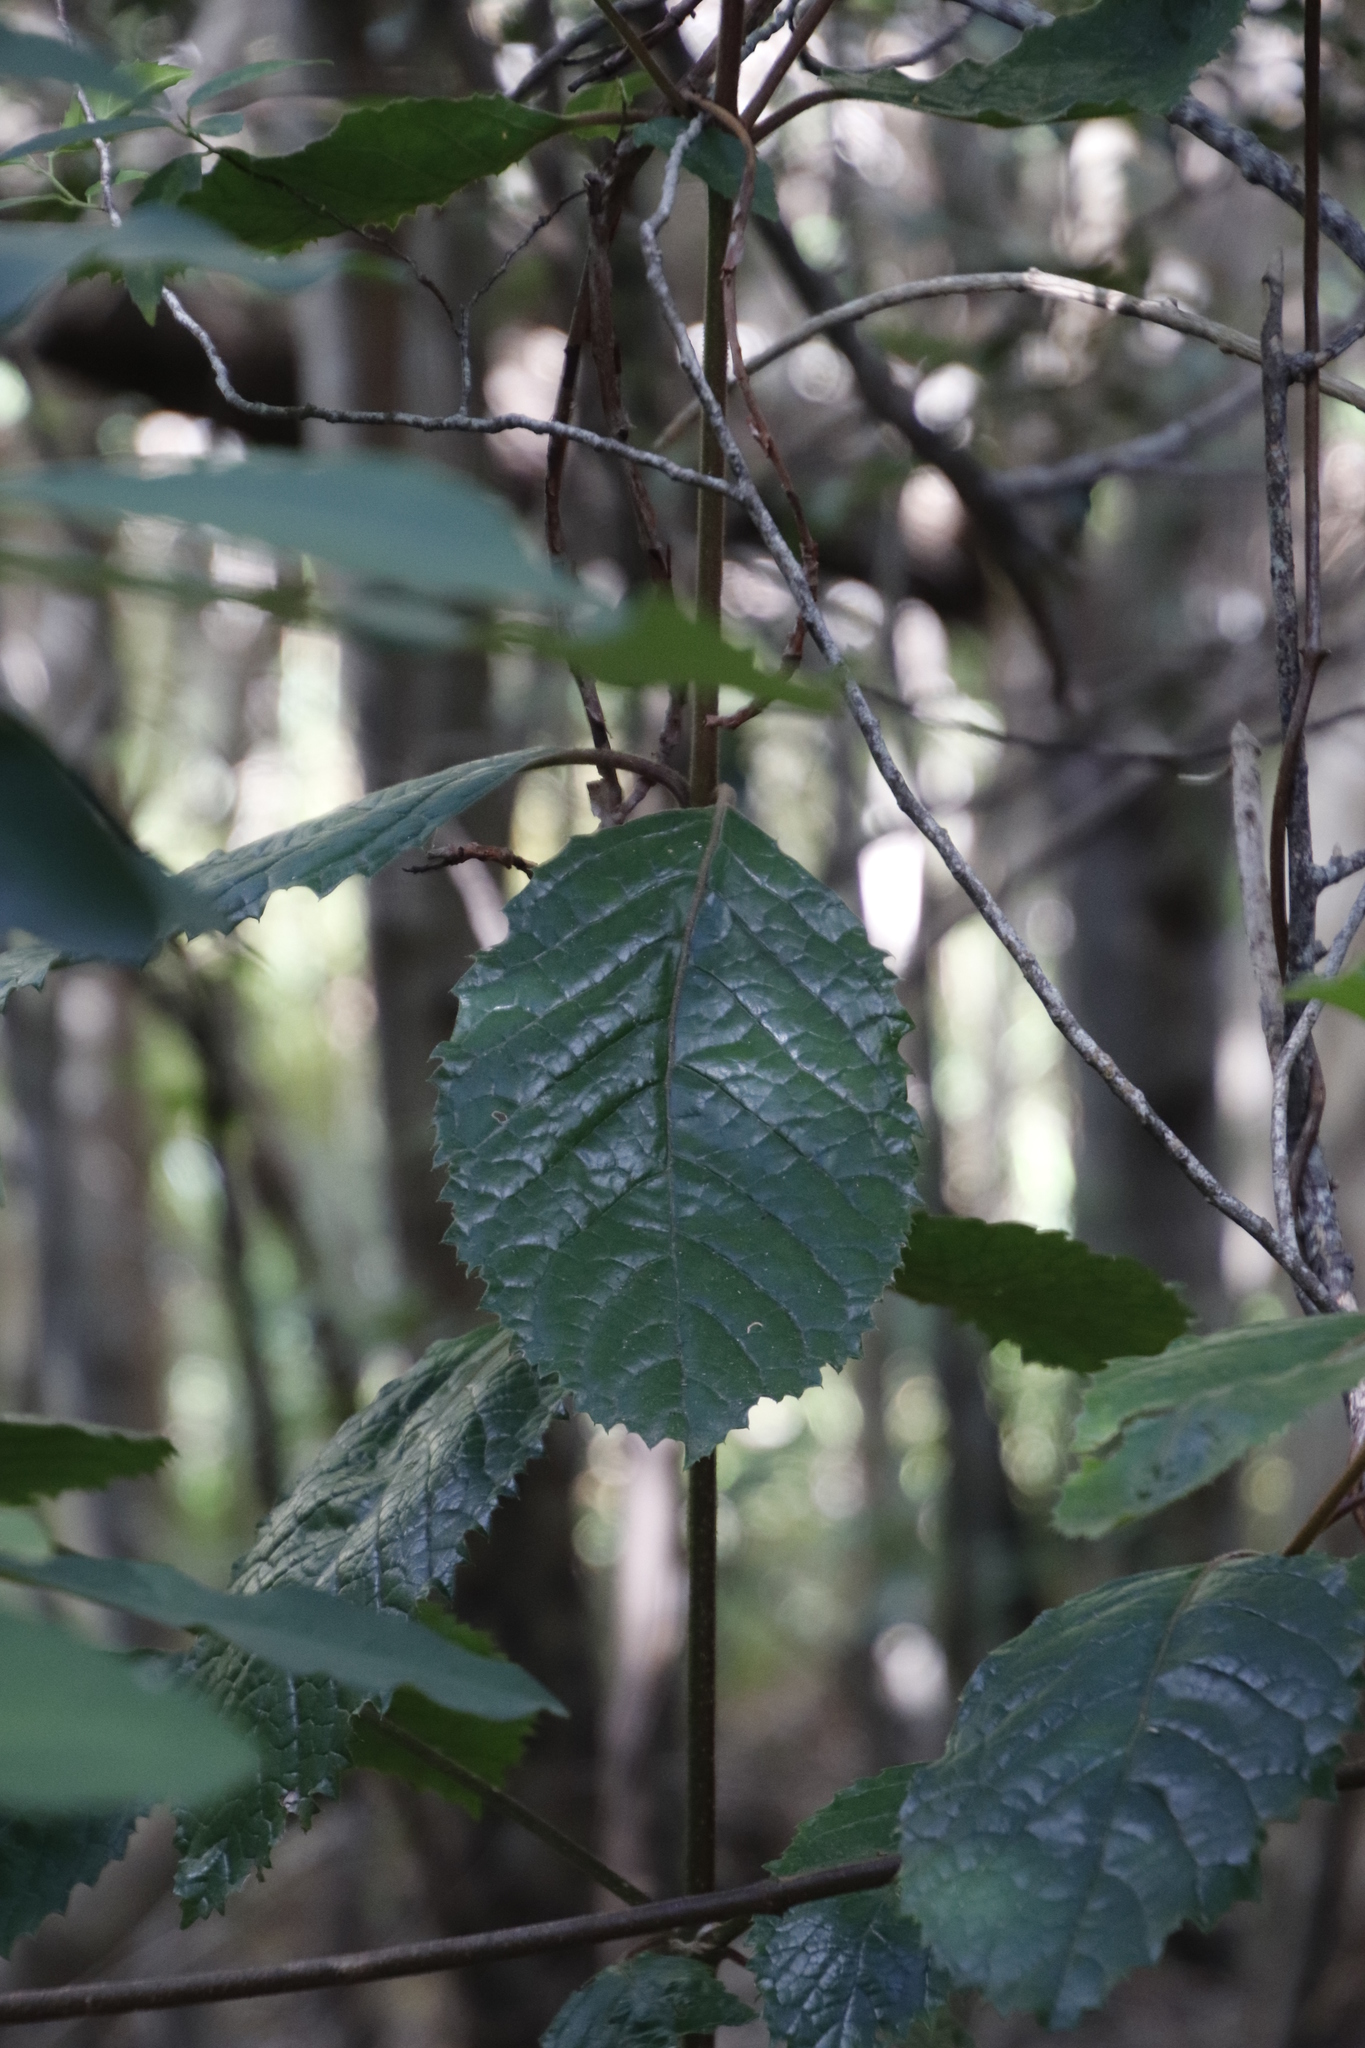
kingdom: Plantae
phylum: Tracheophyta
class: Magnoliopsida
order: Cornales
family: Curtisiaceae
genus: Curtisia
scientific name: Curtisia dentata
